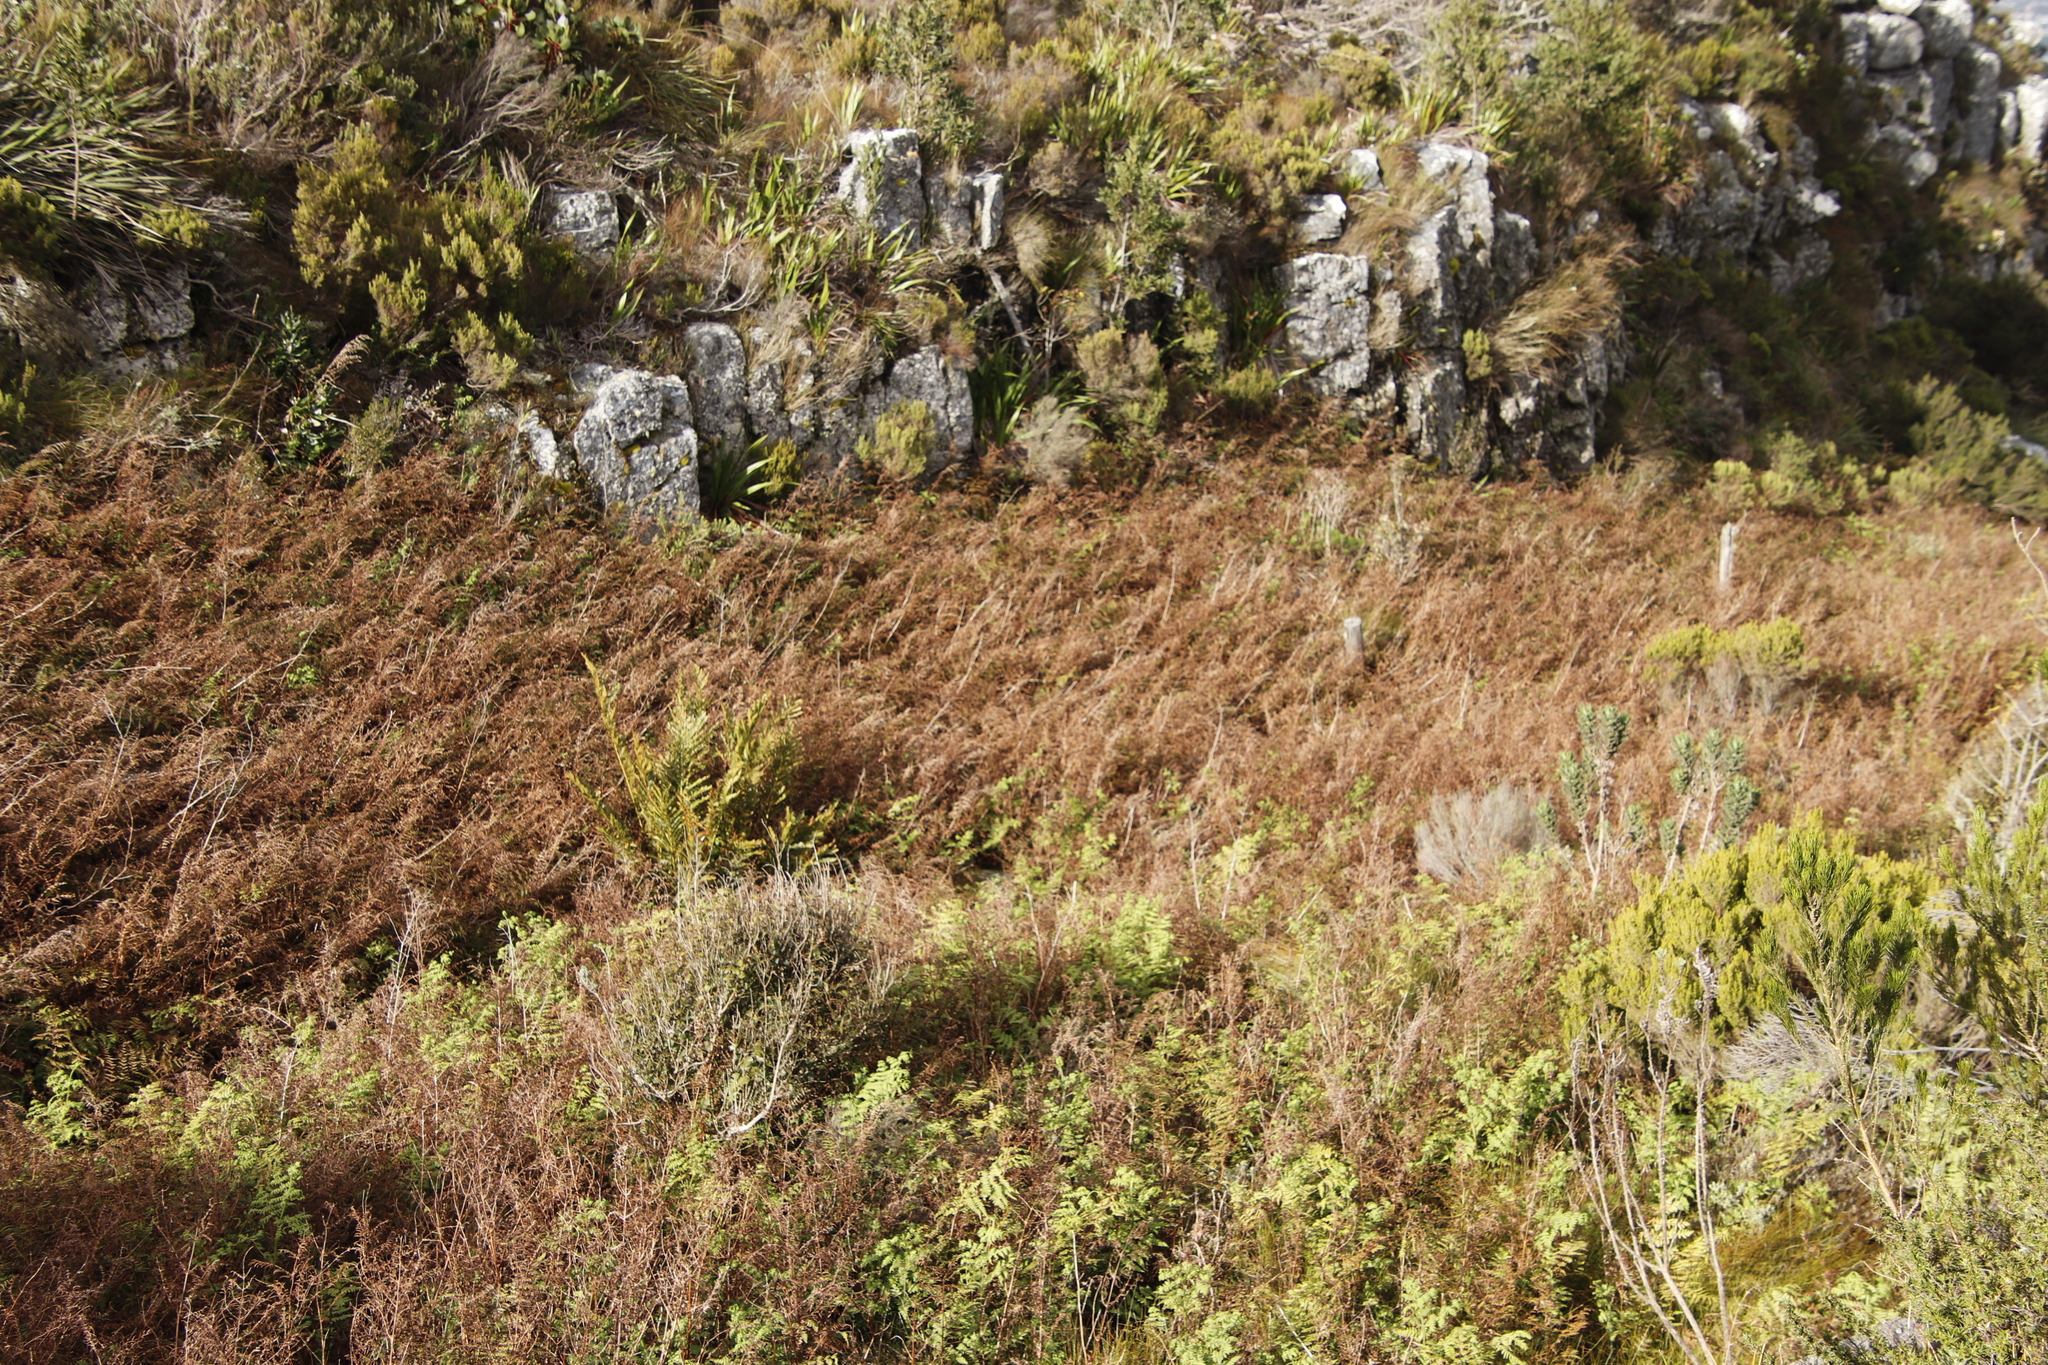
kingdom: Plantae
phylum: Tracheophyta
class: Polypodiopsida
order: Polypodiales
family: Dennstaedtiaceae
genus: Pteridium
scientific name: Pteridium aquilinum
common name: Bracken
